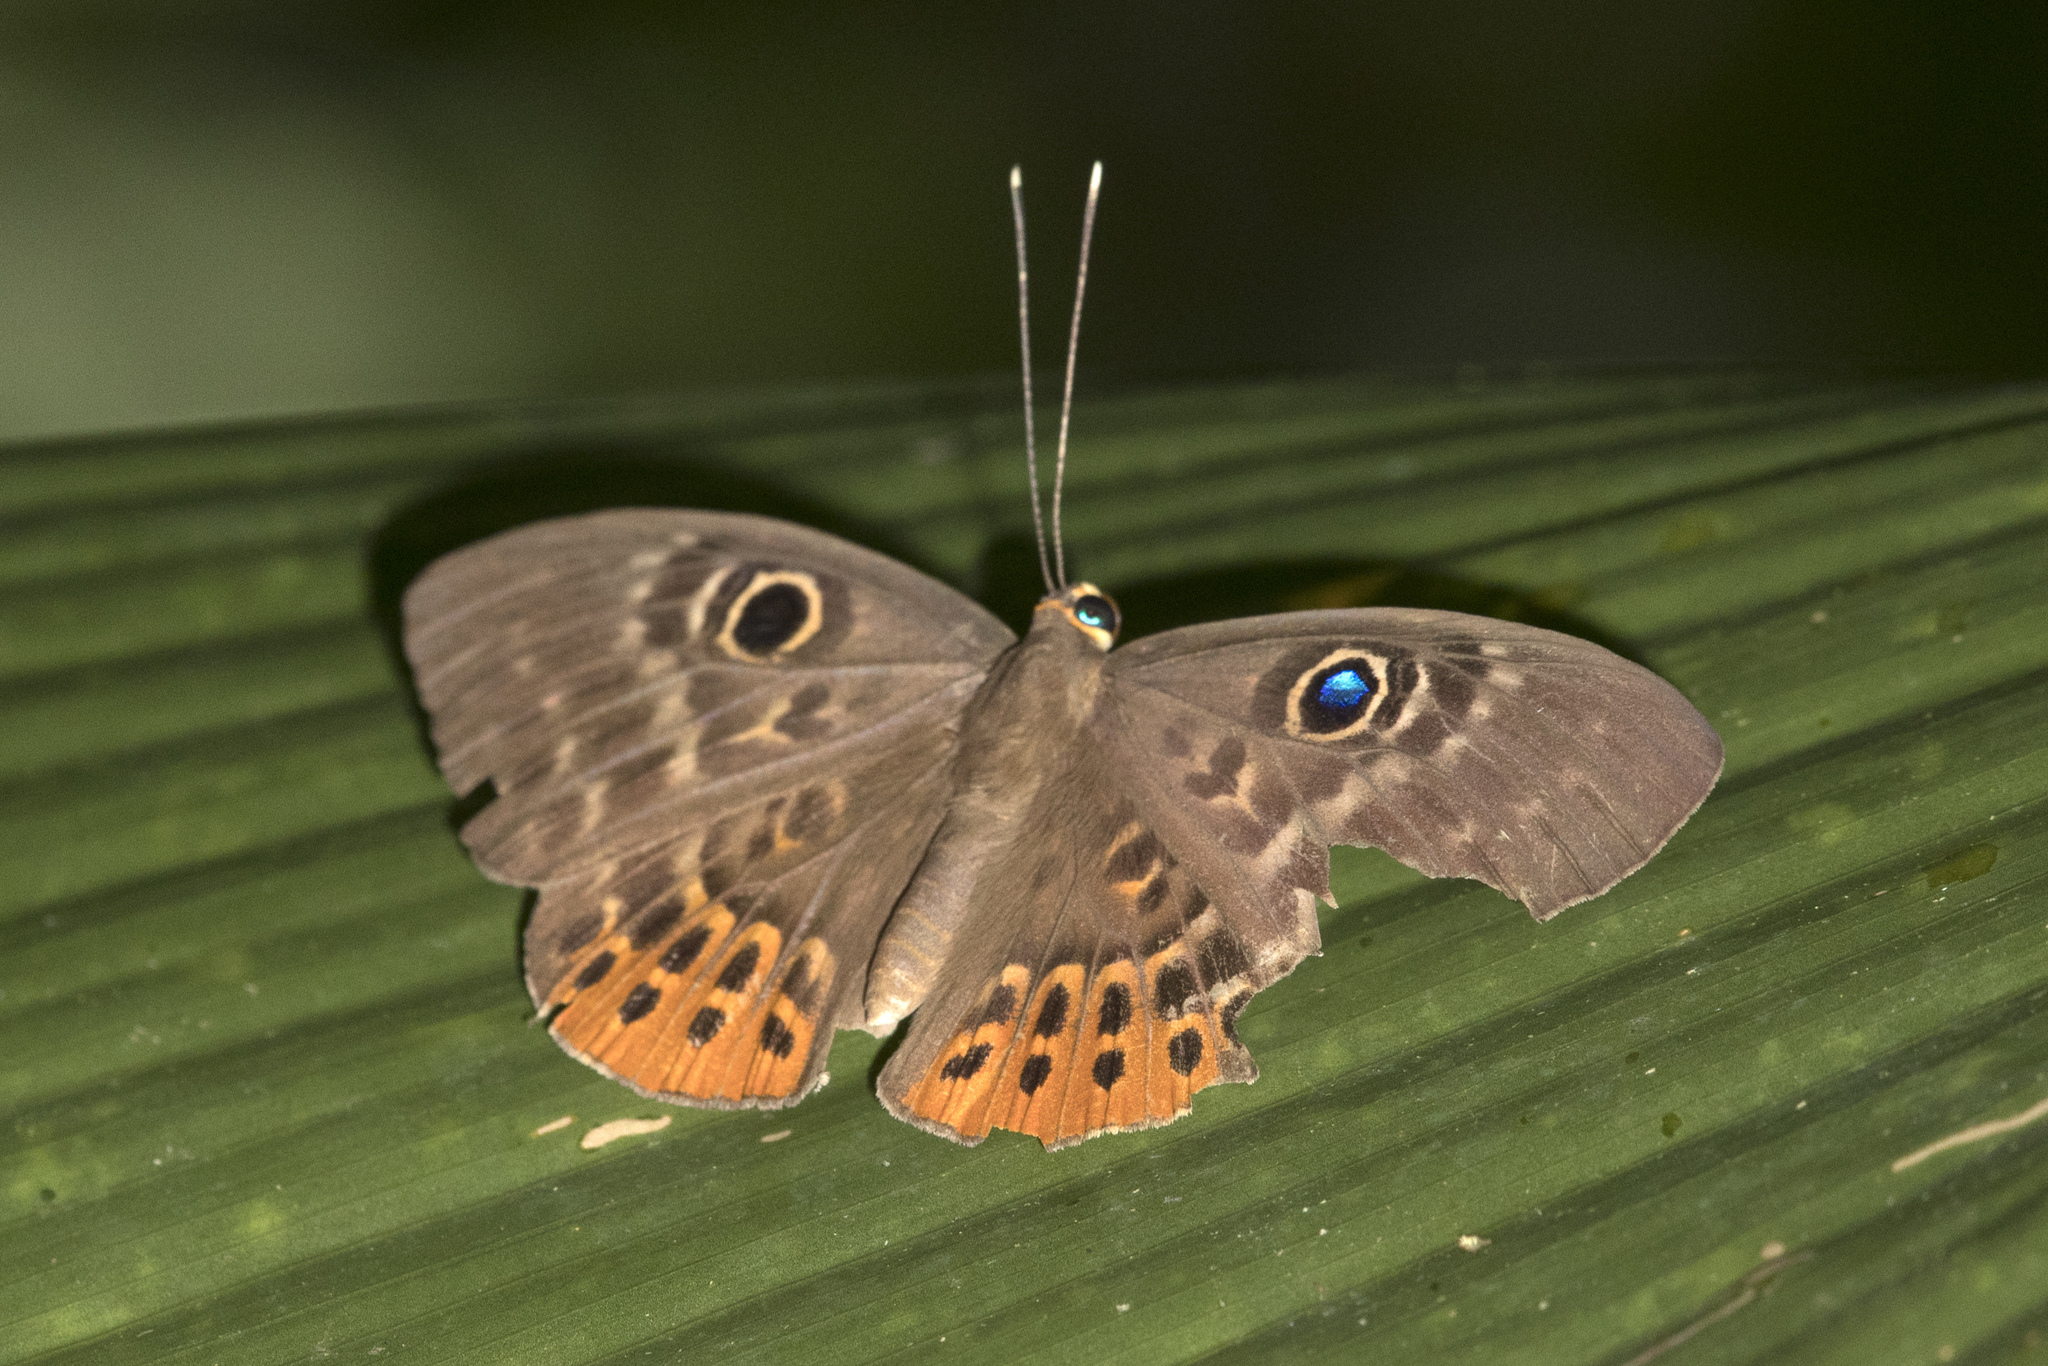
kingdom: Animalia
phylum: Cnidaria
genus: Eurybia
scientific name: Eurybia patrona
